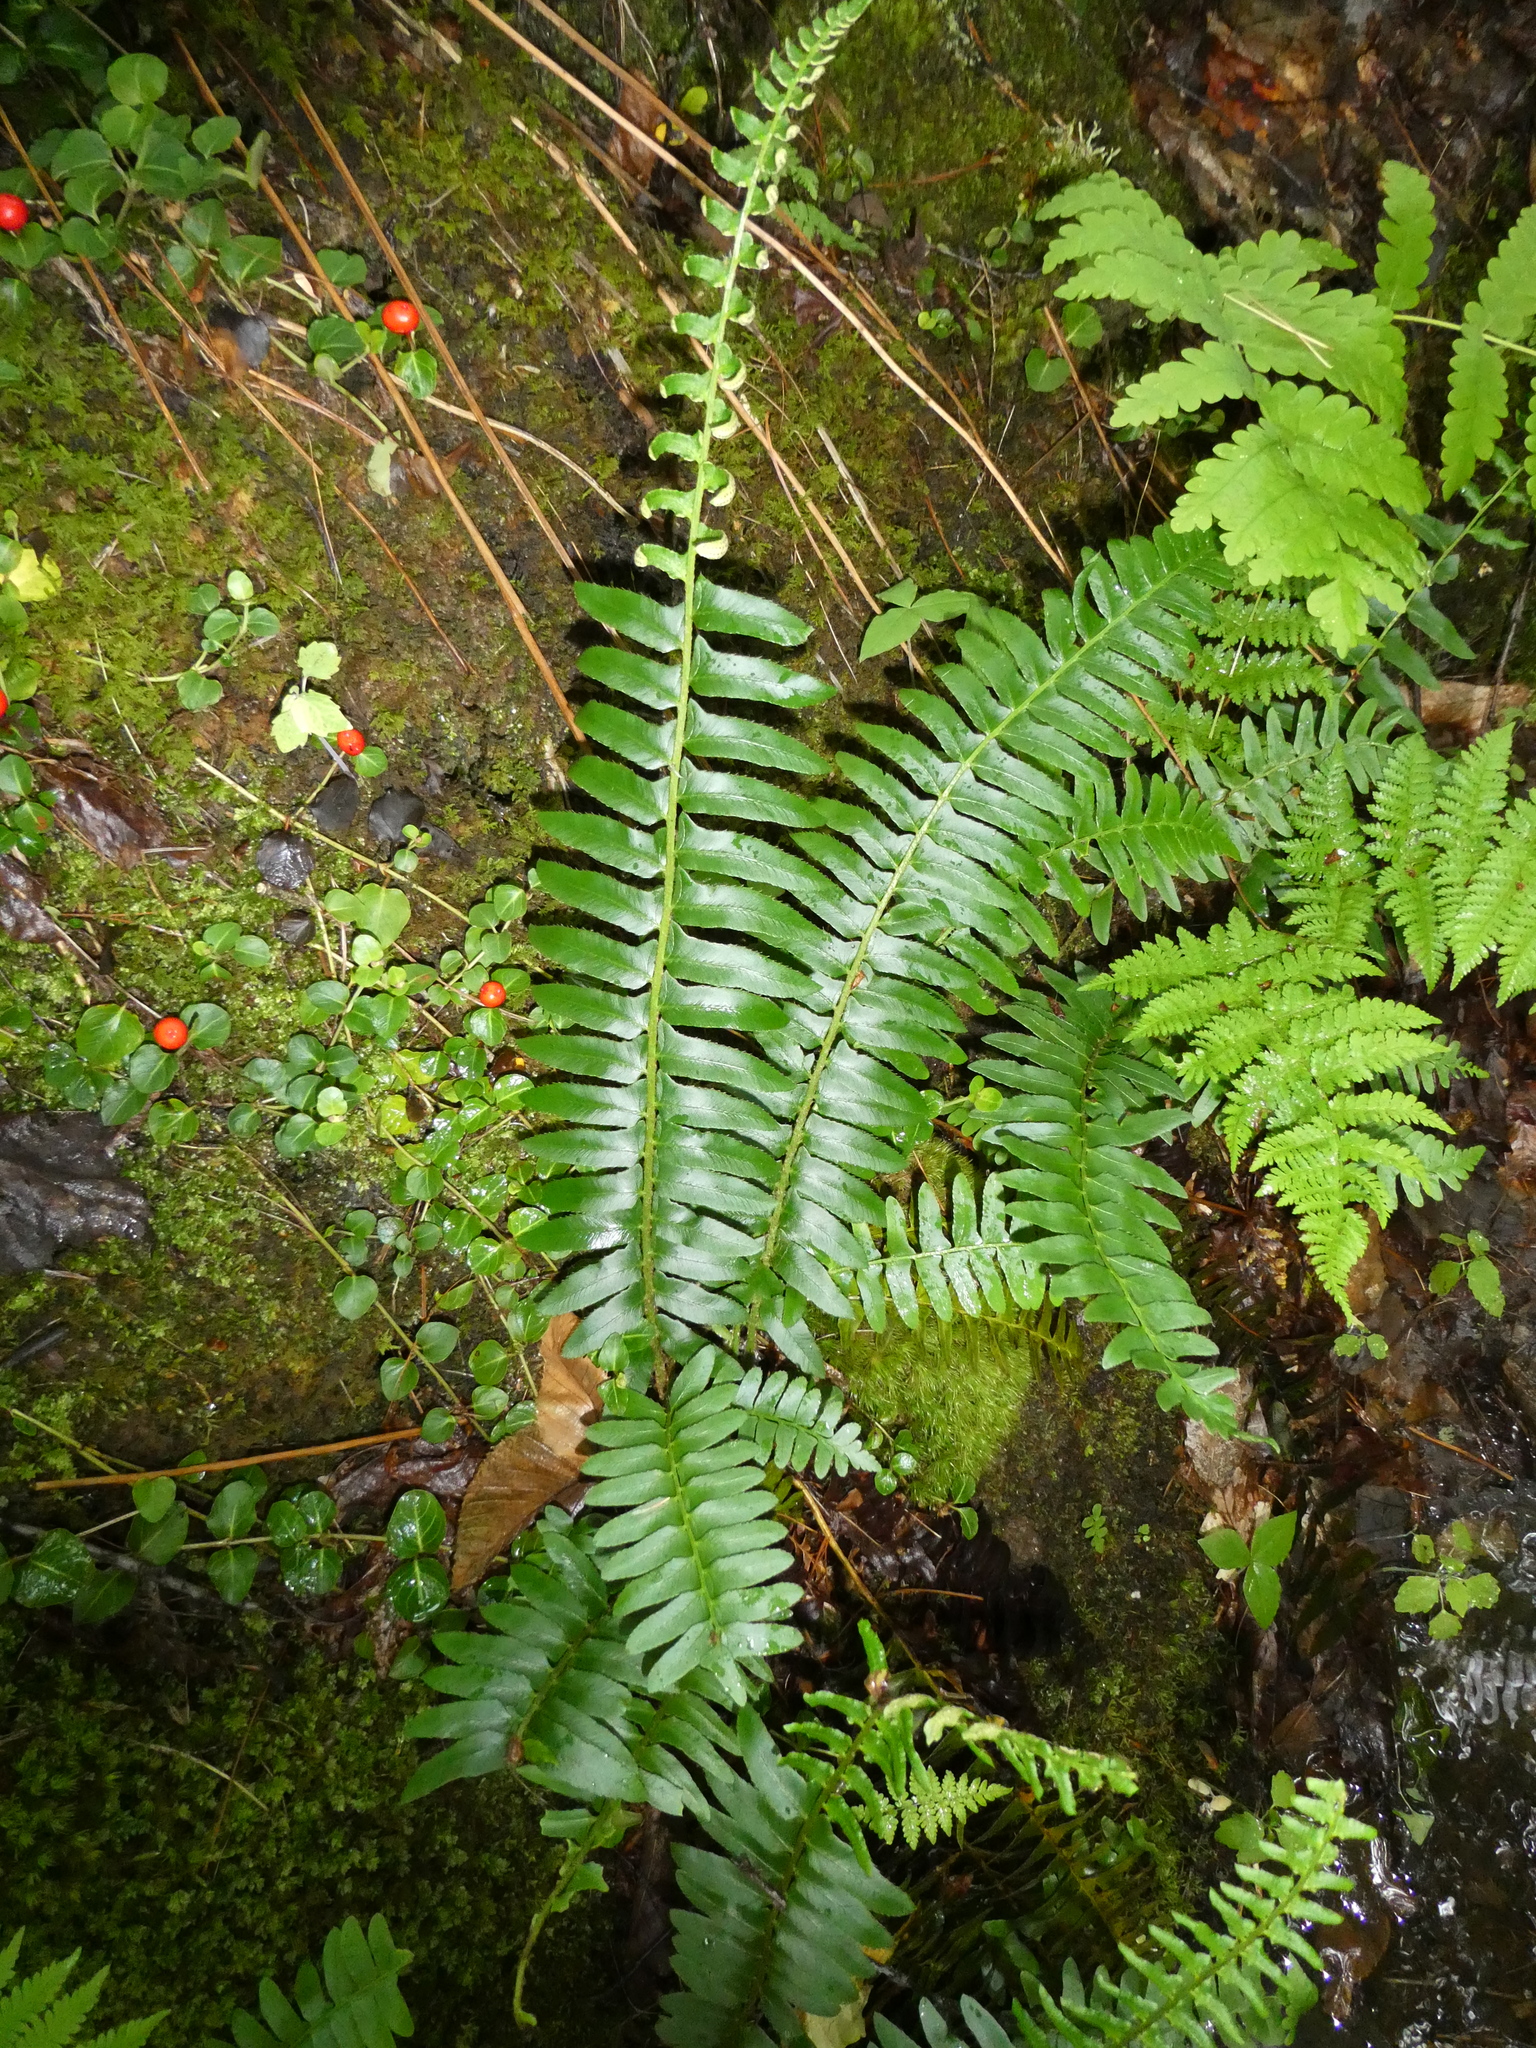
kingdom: Plantae
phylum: Tracheophyta
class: Polypodiopsida
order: Polypodiales
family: Dryopteridaceae
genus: Polystichum
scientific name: Polystichum acrostichoides
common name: Christmas fern
